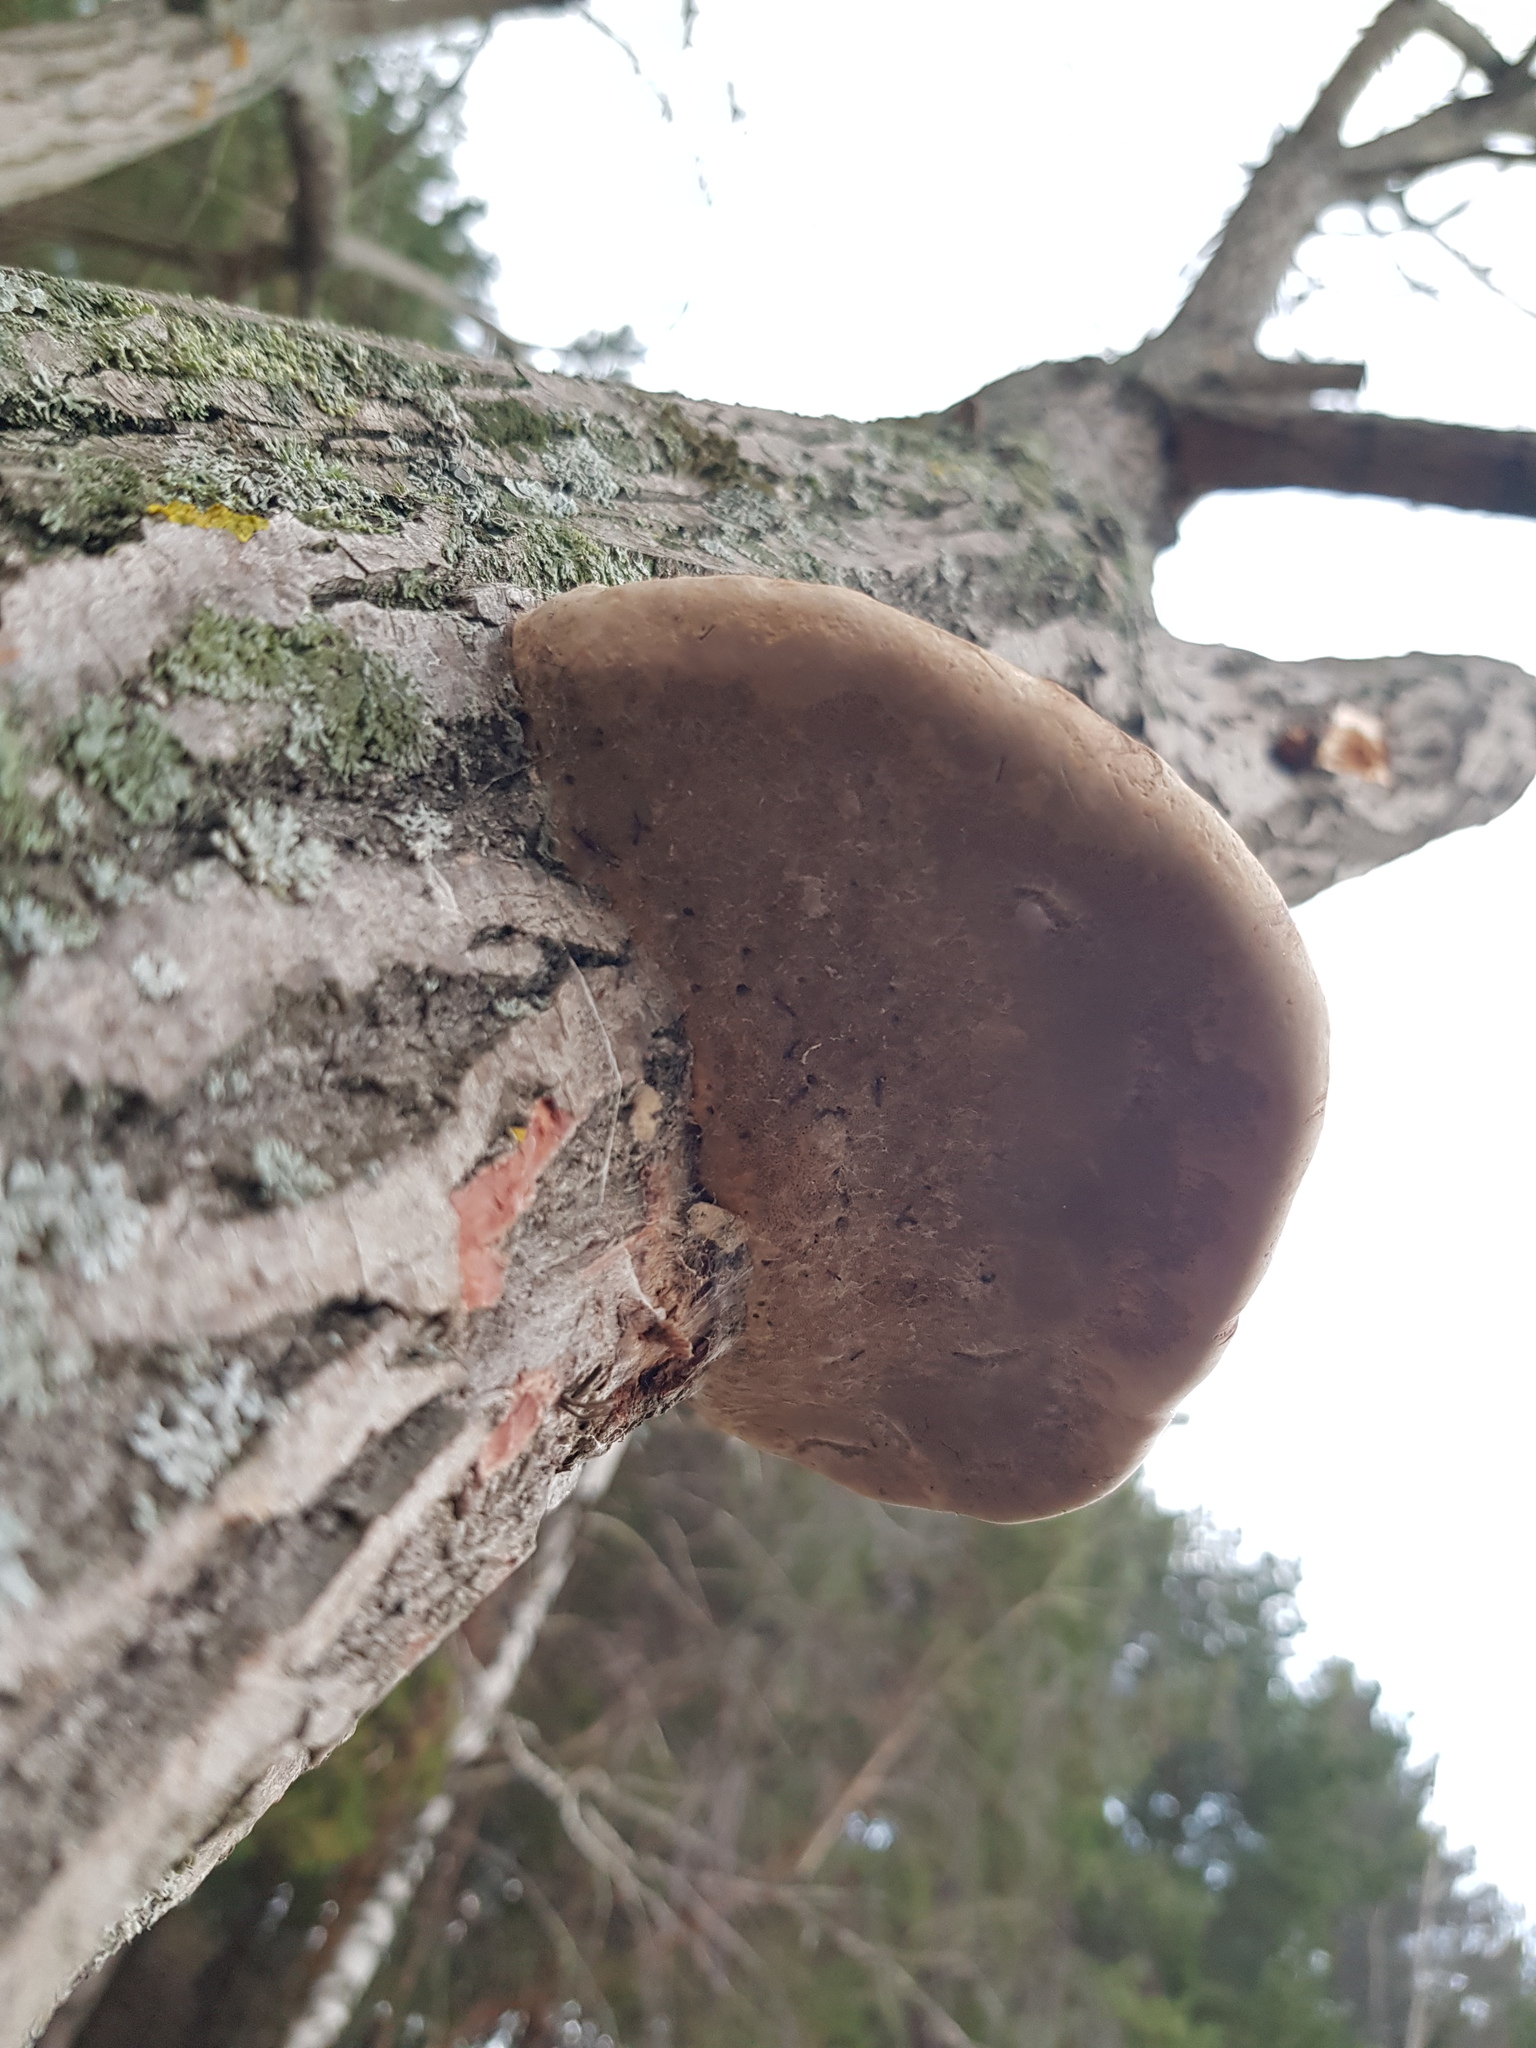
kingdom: Fungi
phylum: Basidiomycota
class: Agaricomycetes
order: Polyporales
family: Polyporaceae
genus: Fomes
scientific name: Fomes fomentarius
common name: Hoof fungus
